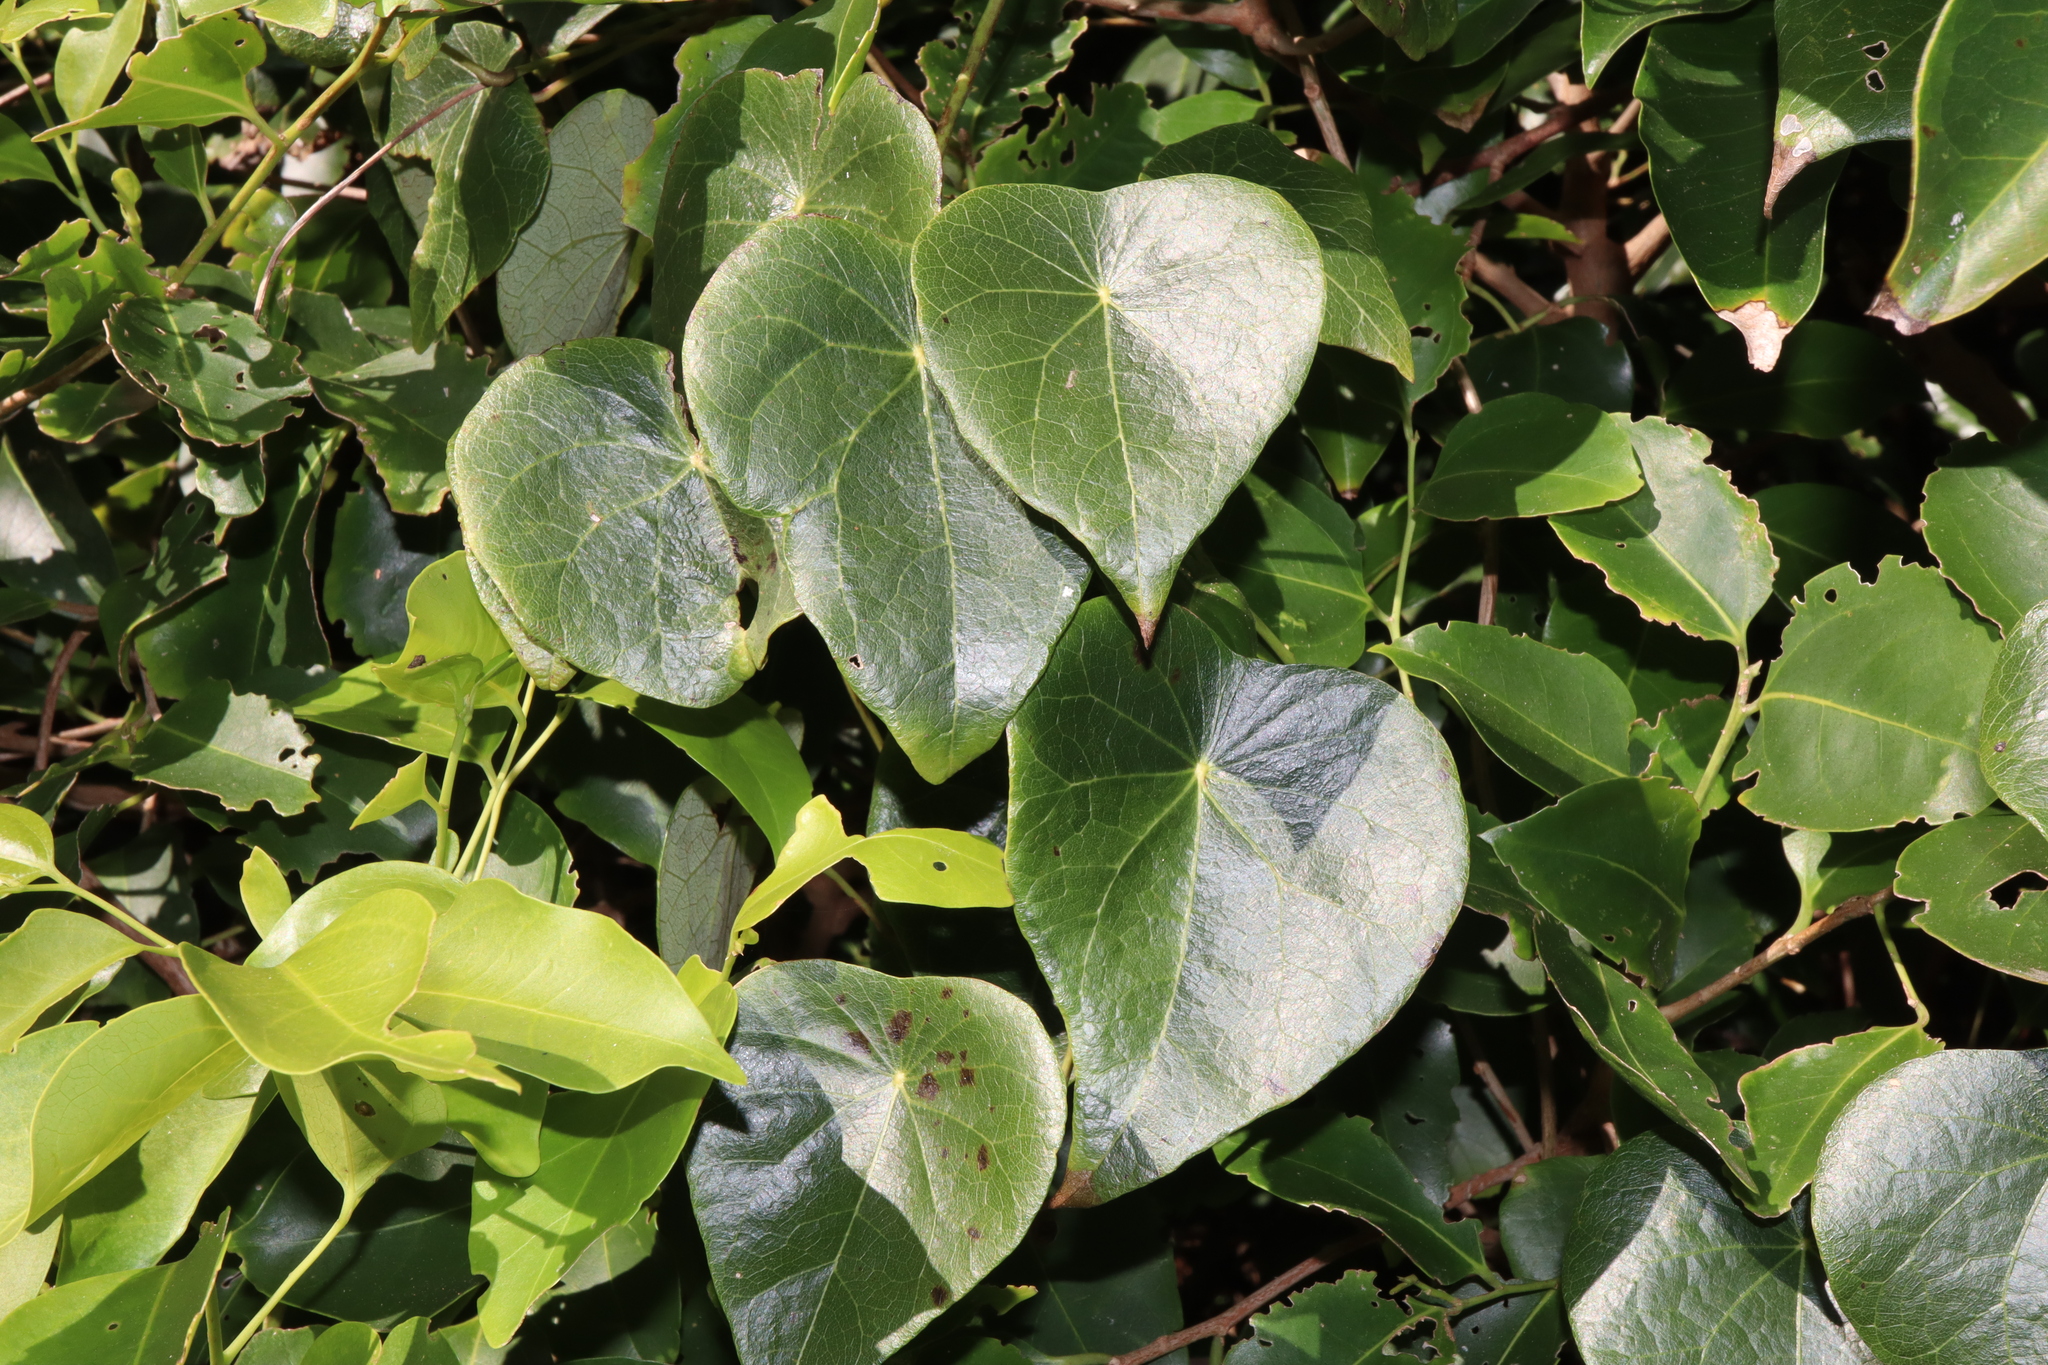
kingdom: Plantae
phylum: Tracheophyta
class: Magnoliopsida
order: Ranunculales
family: Menispermaceae
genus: Stephania
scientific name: Stephania japonica
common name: Snake vine
